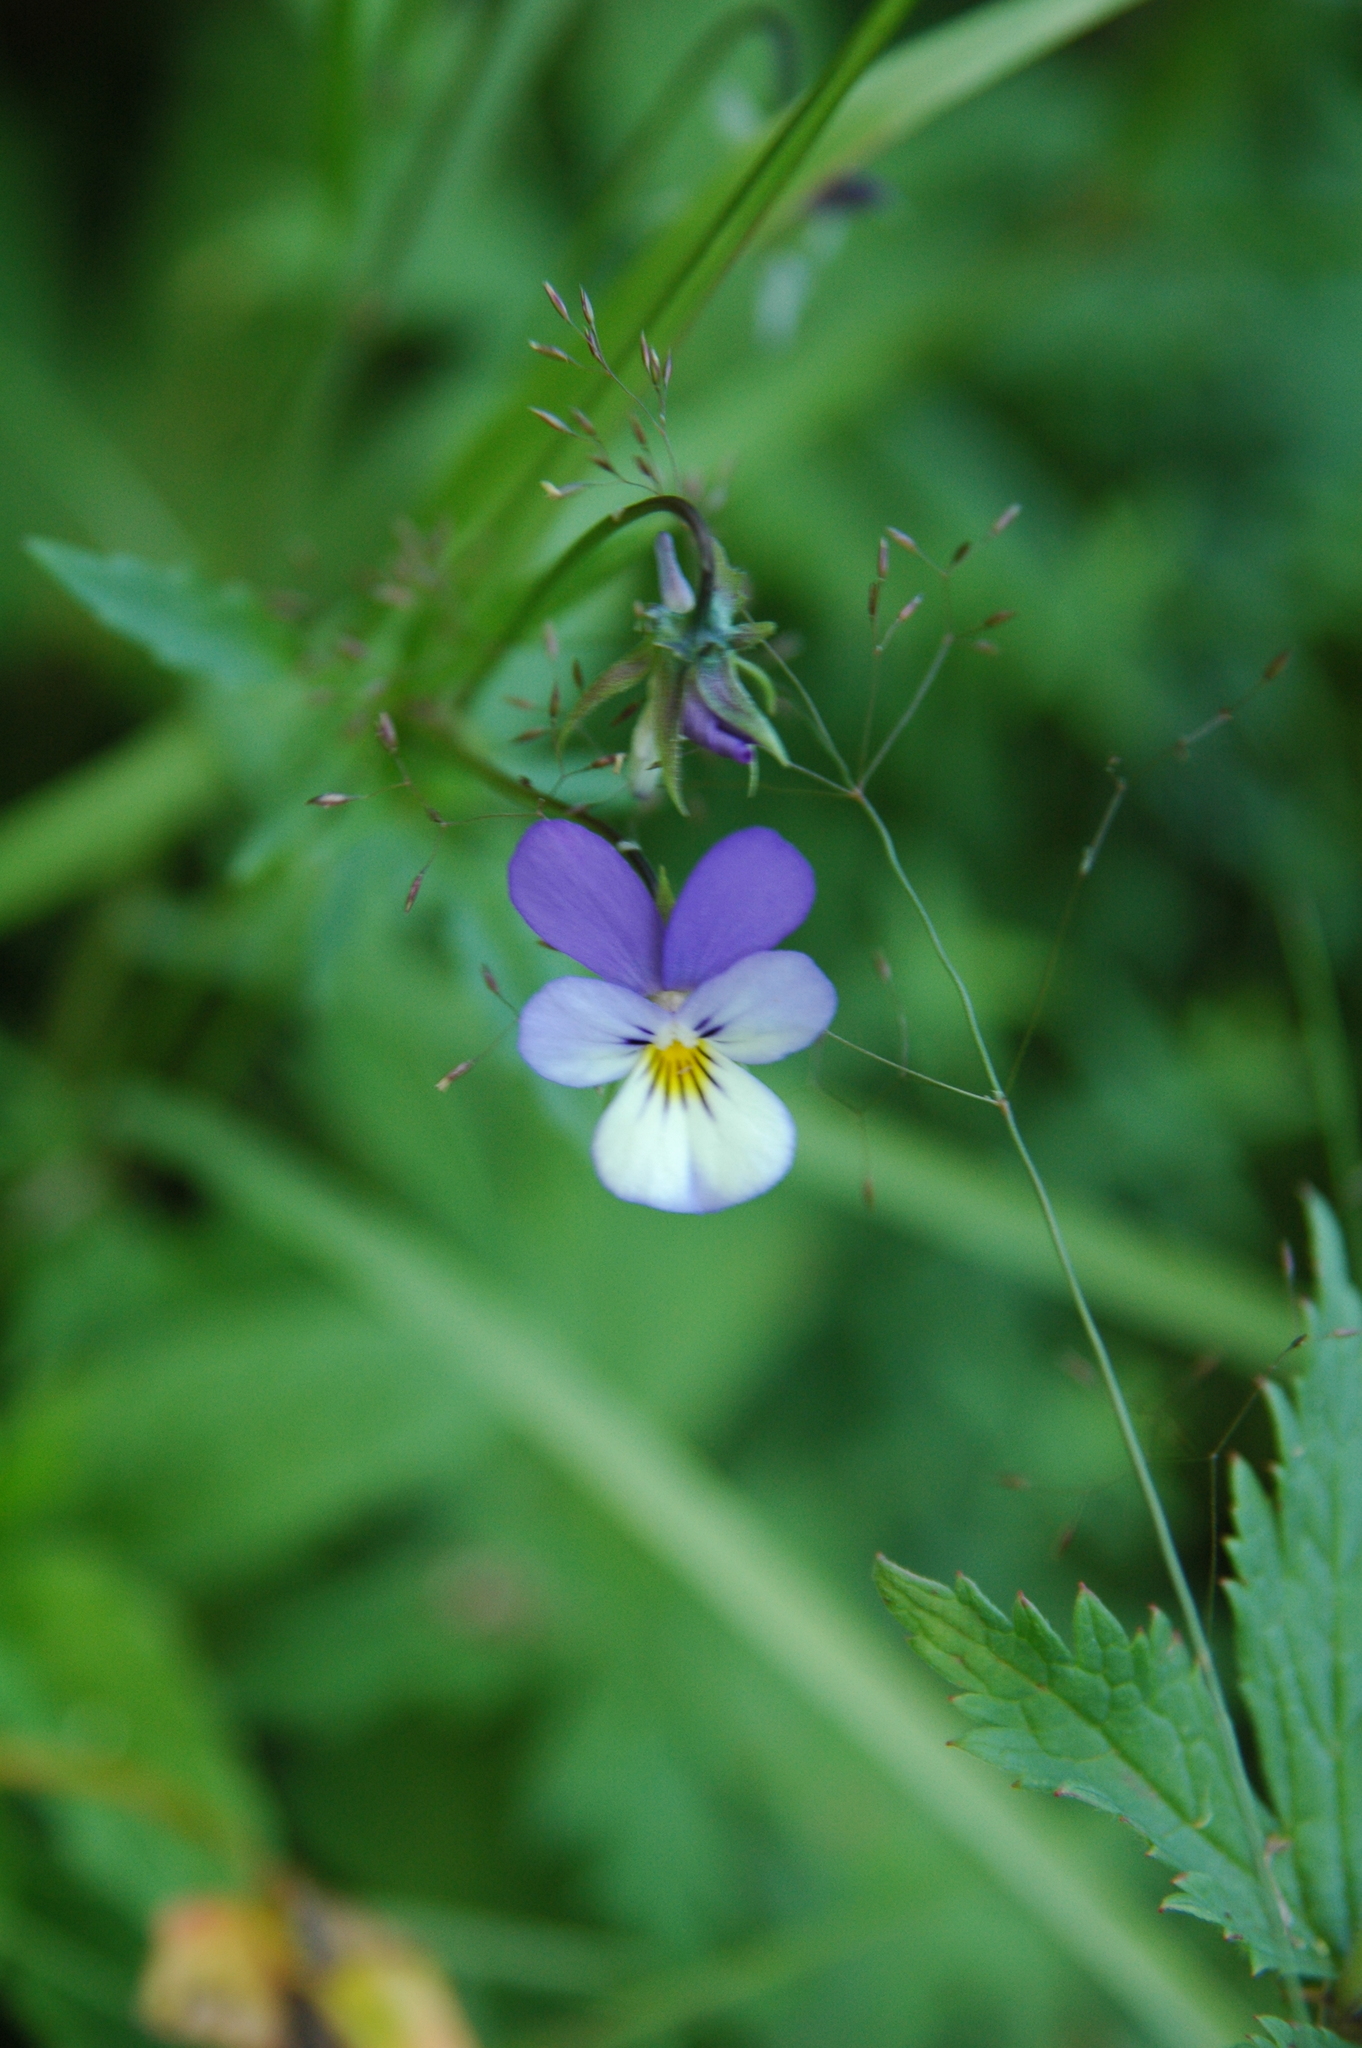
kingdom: Plantae
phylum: Tracheophyta
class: Magnoliopsida
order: Malpighiales
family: Violaceae
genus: Viola
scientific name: Viola tricolor
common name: Pansy
